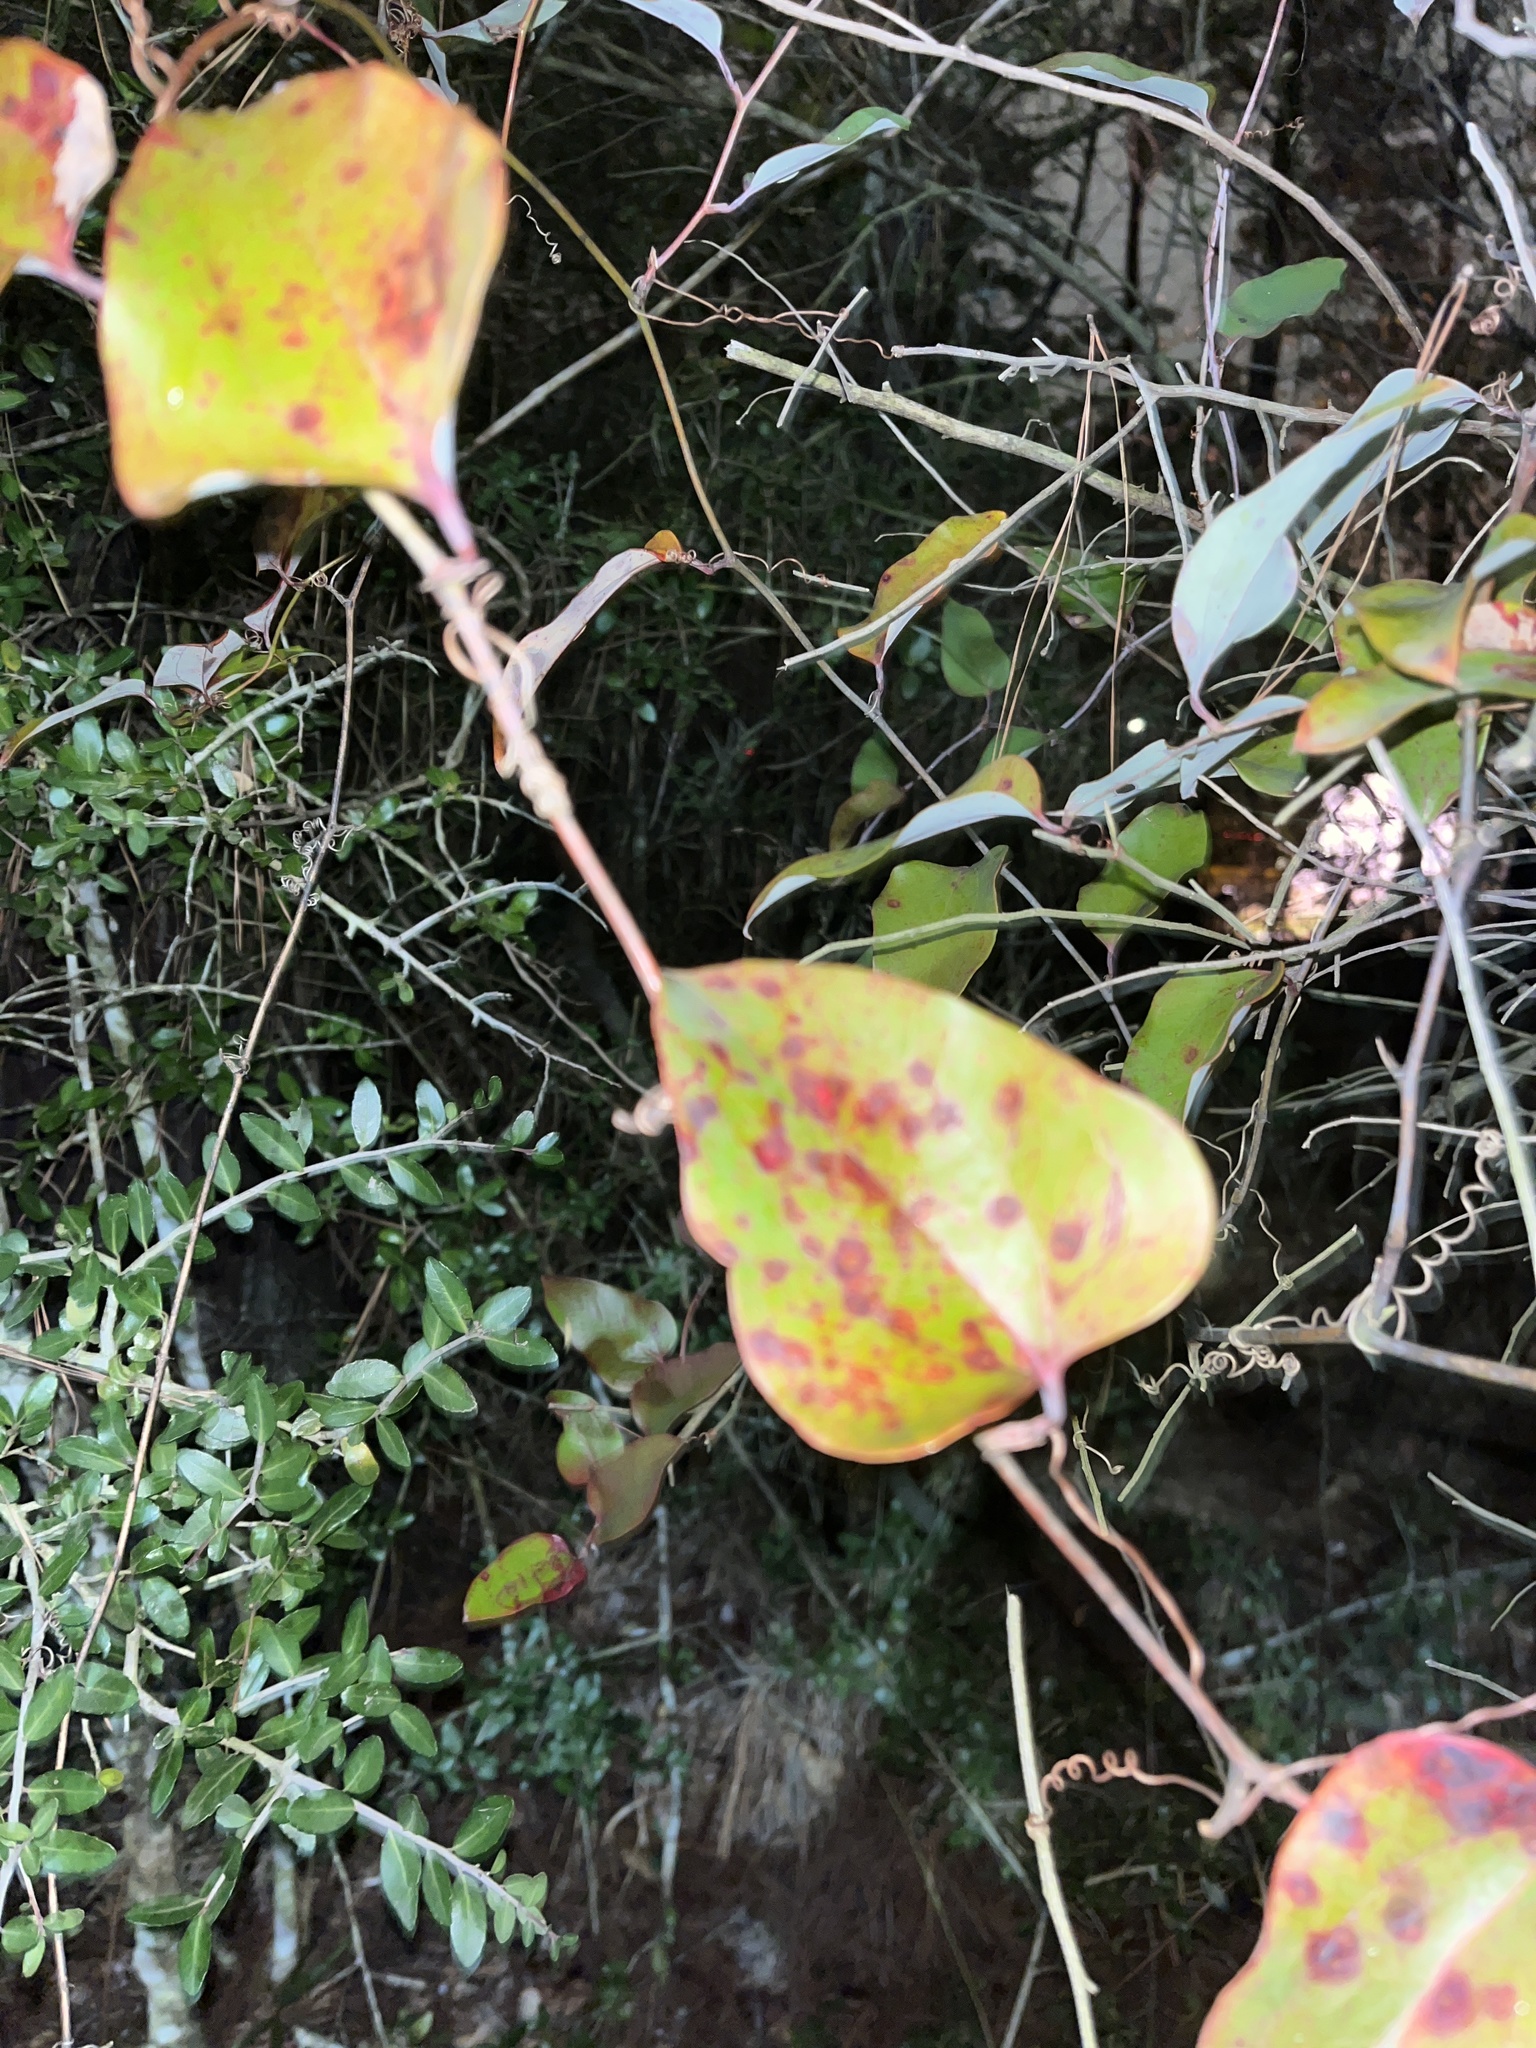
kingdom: Plantae
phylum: Tracheophyta
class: Liliopsida
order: Liliales
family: Smilacaceae
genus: Smilax
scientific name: Smilax glauca
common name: Cat greenbrier
